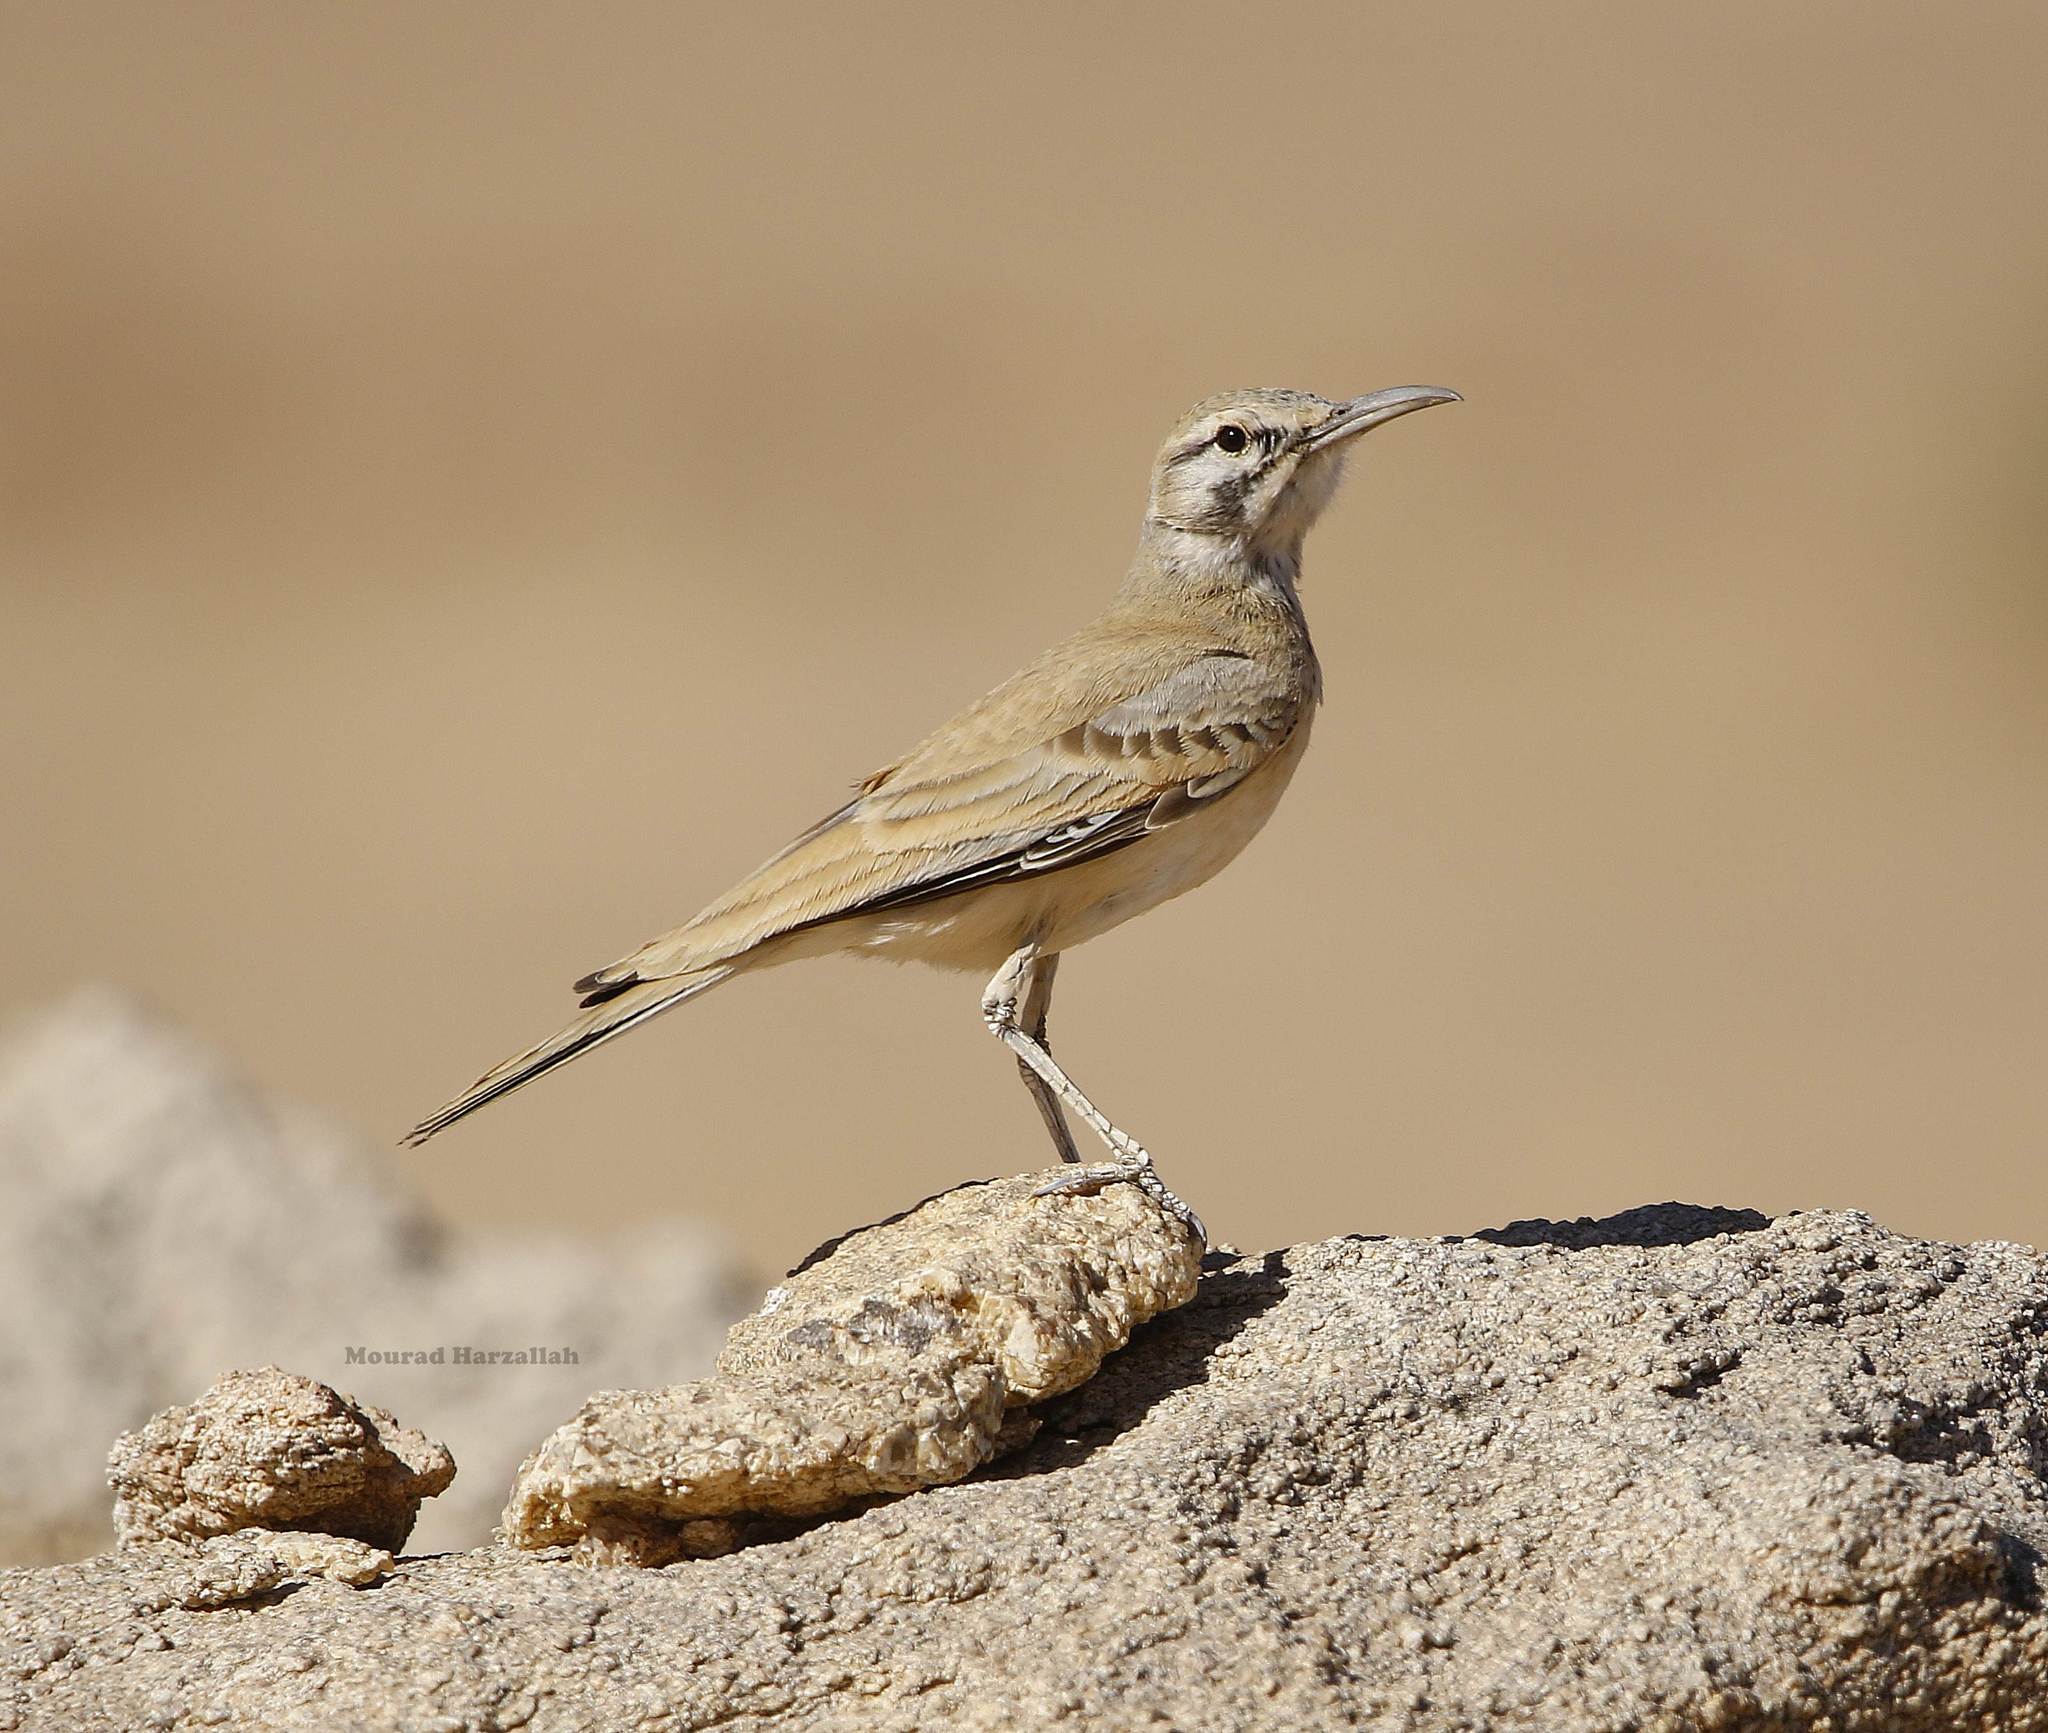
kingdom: Animalia
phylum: Chordata
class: Aves
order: Passeriformes
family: Alaudidae
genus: Alaemon
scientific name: Alaemon alaudipes
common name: Greater hoopoe-lark
